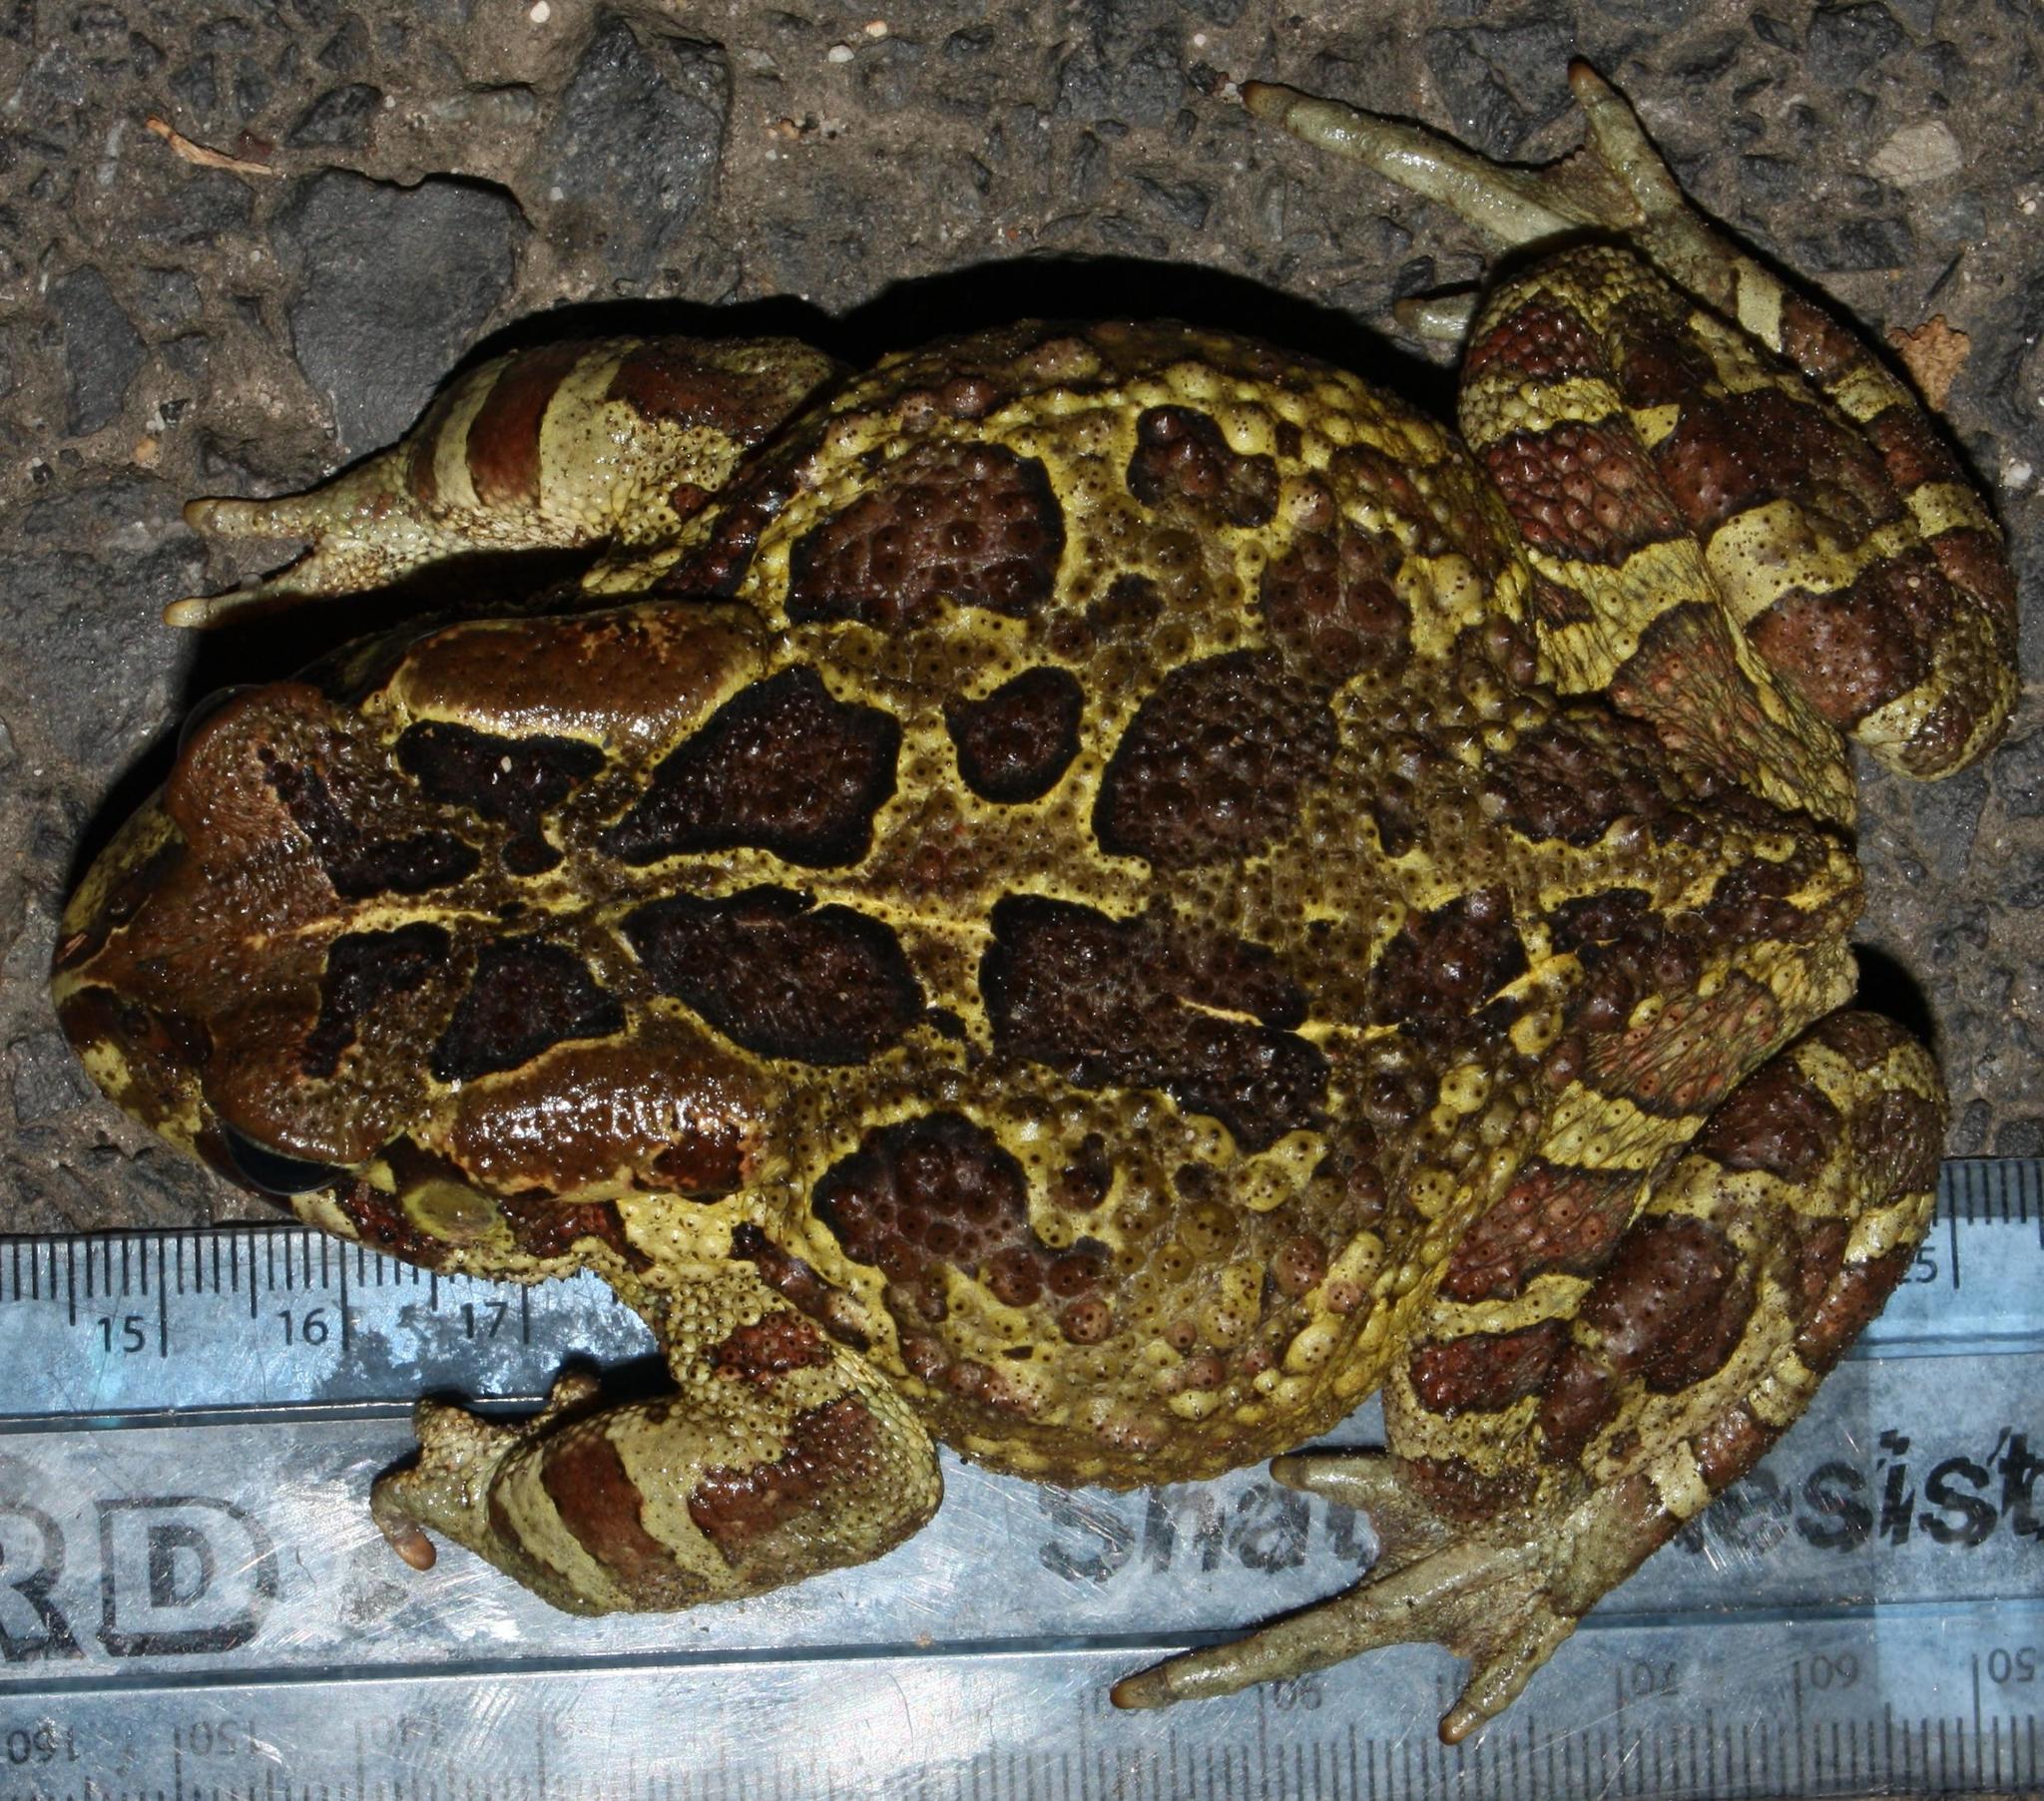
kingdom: Animalia
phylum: Chordata
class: Amphibia
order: Anura
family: Bufonidae
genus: Sclerophrys
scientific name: Sclerophrys pantherina
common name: Panther toad
